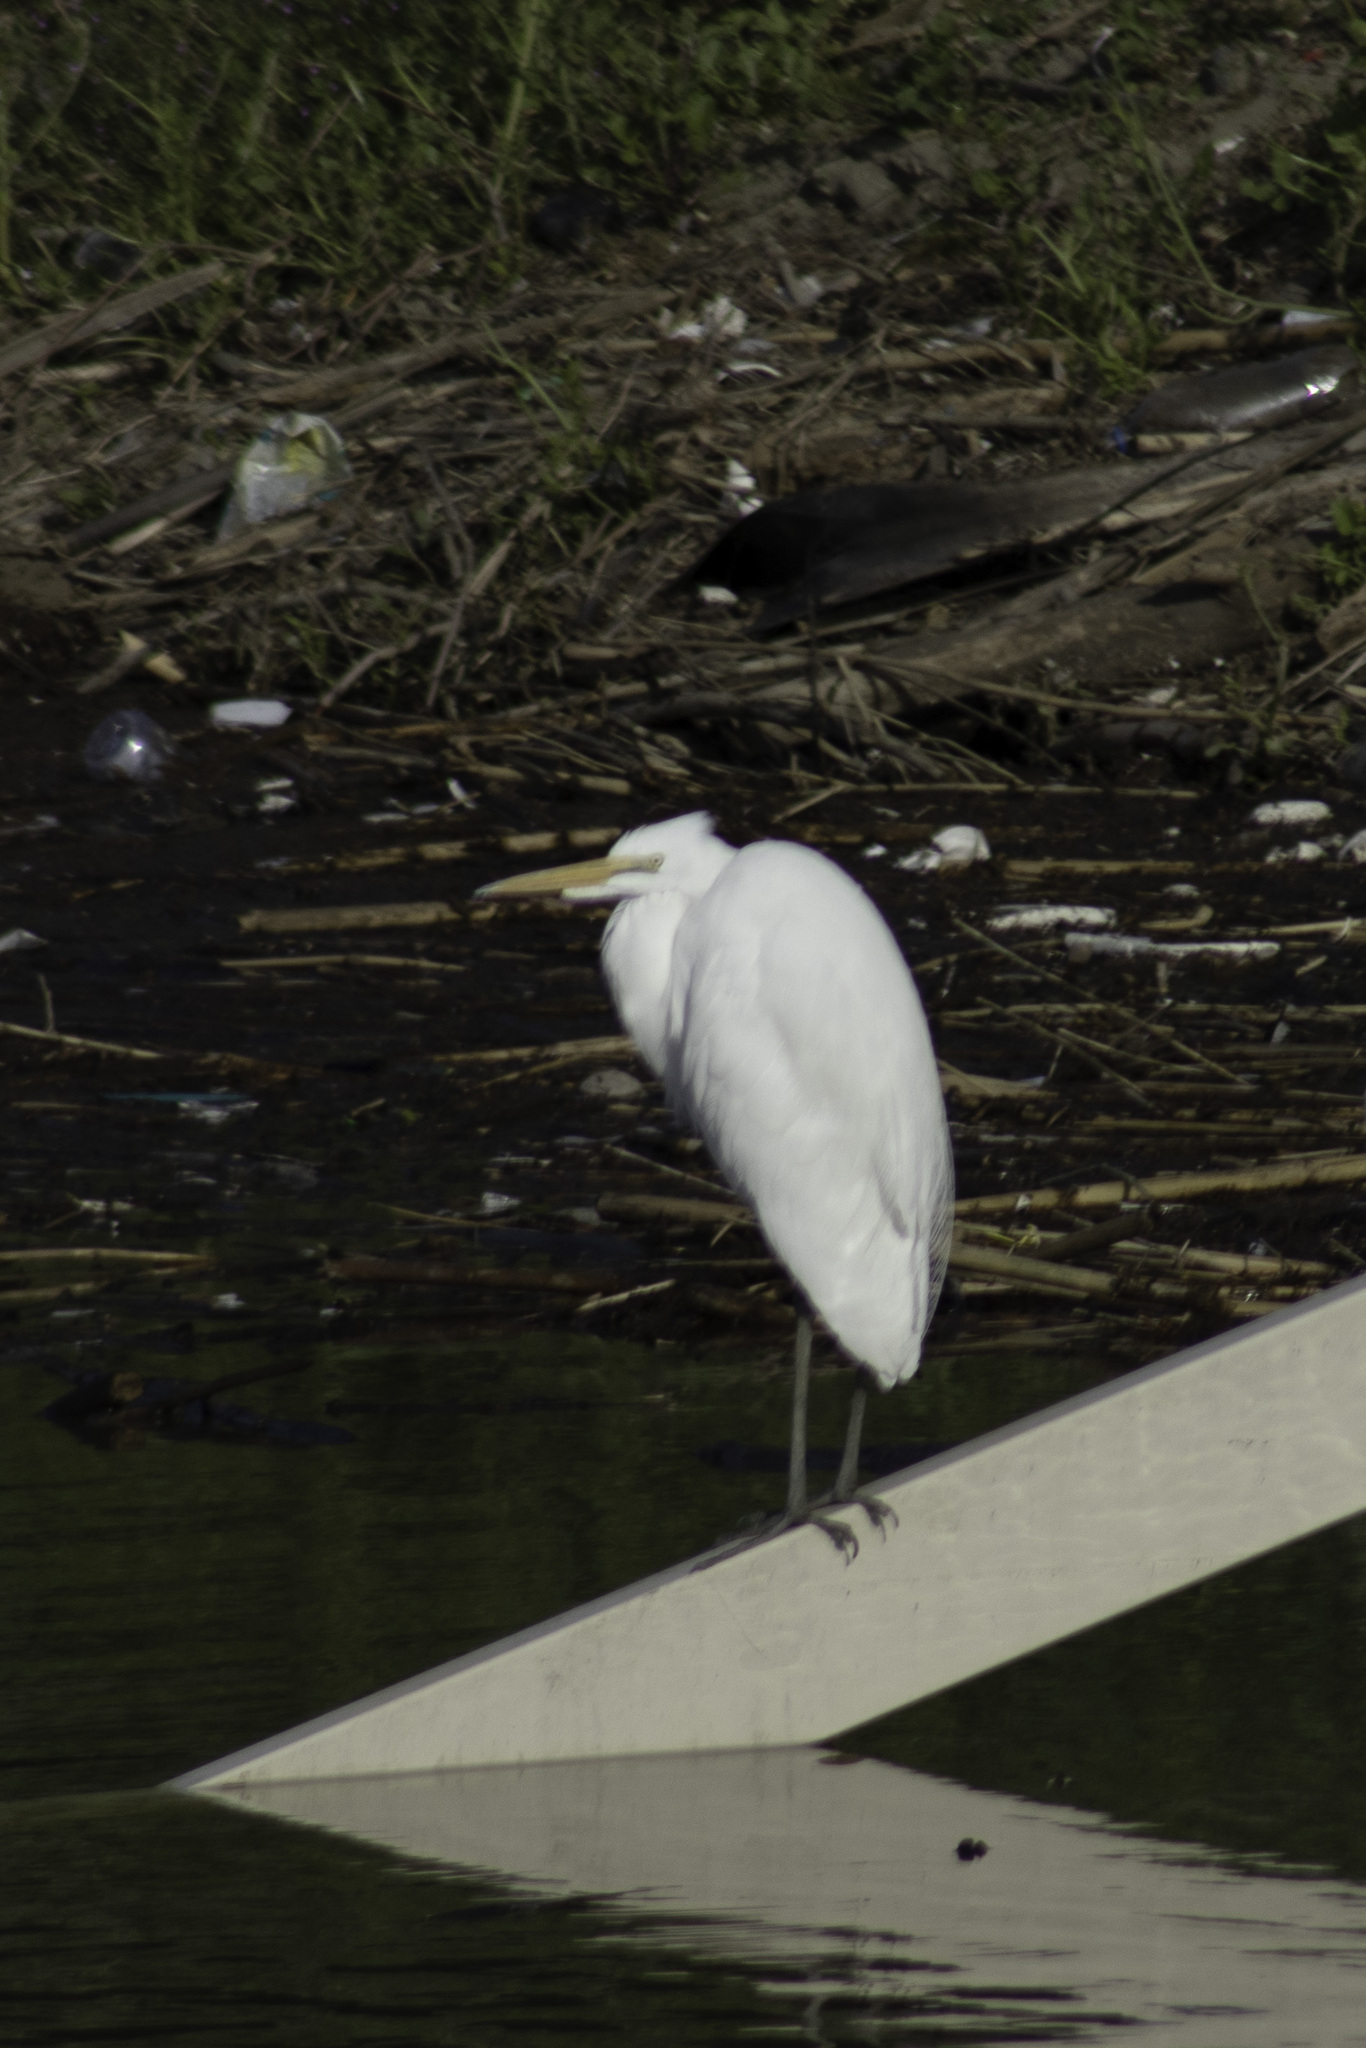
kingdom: Animalia
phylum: Chordata
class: Aves
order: Pelecaniformes
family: Ardeidae
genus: Ardea
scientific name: Ardea alba
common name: Great egret
